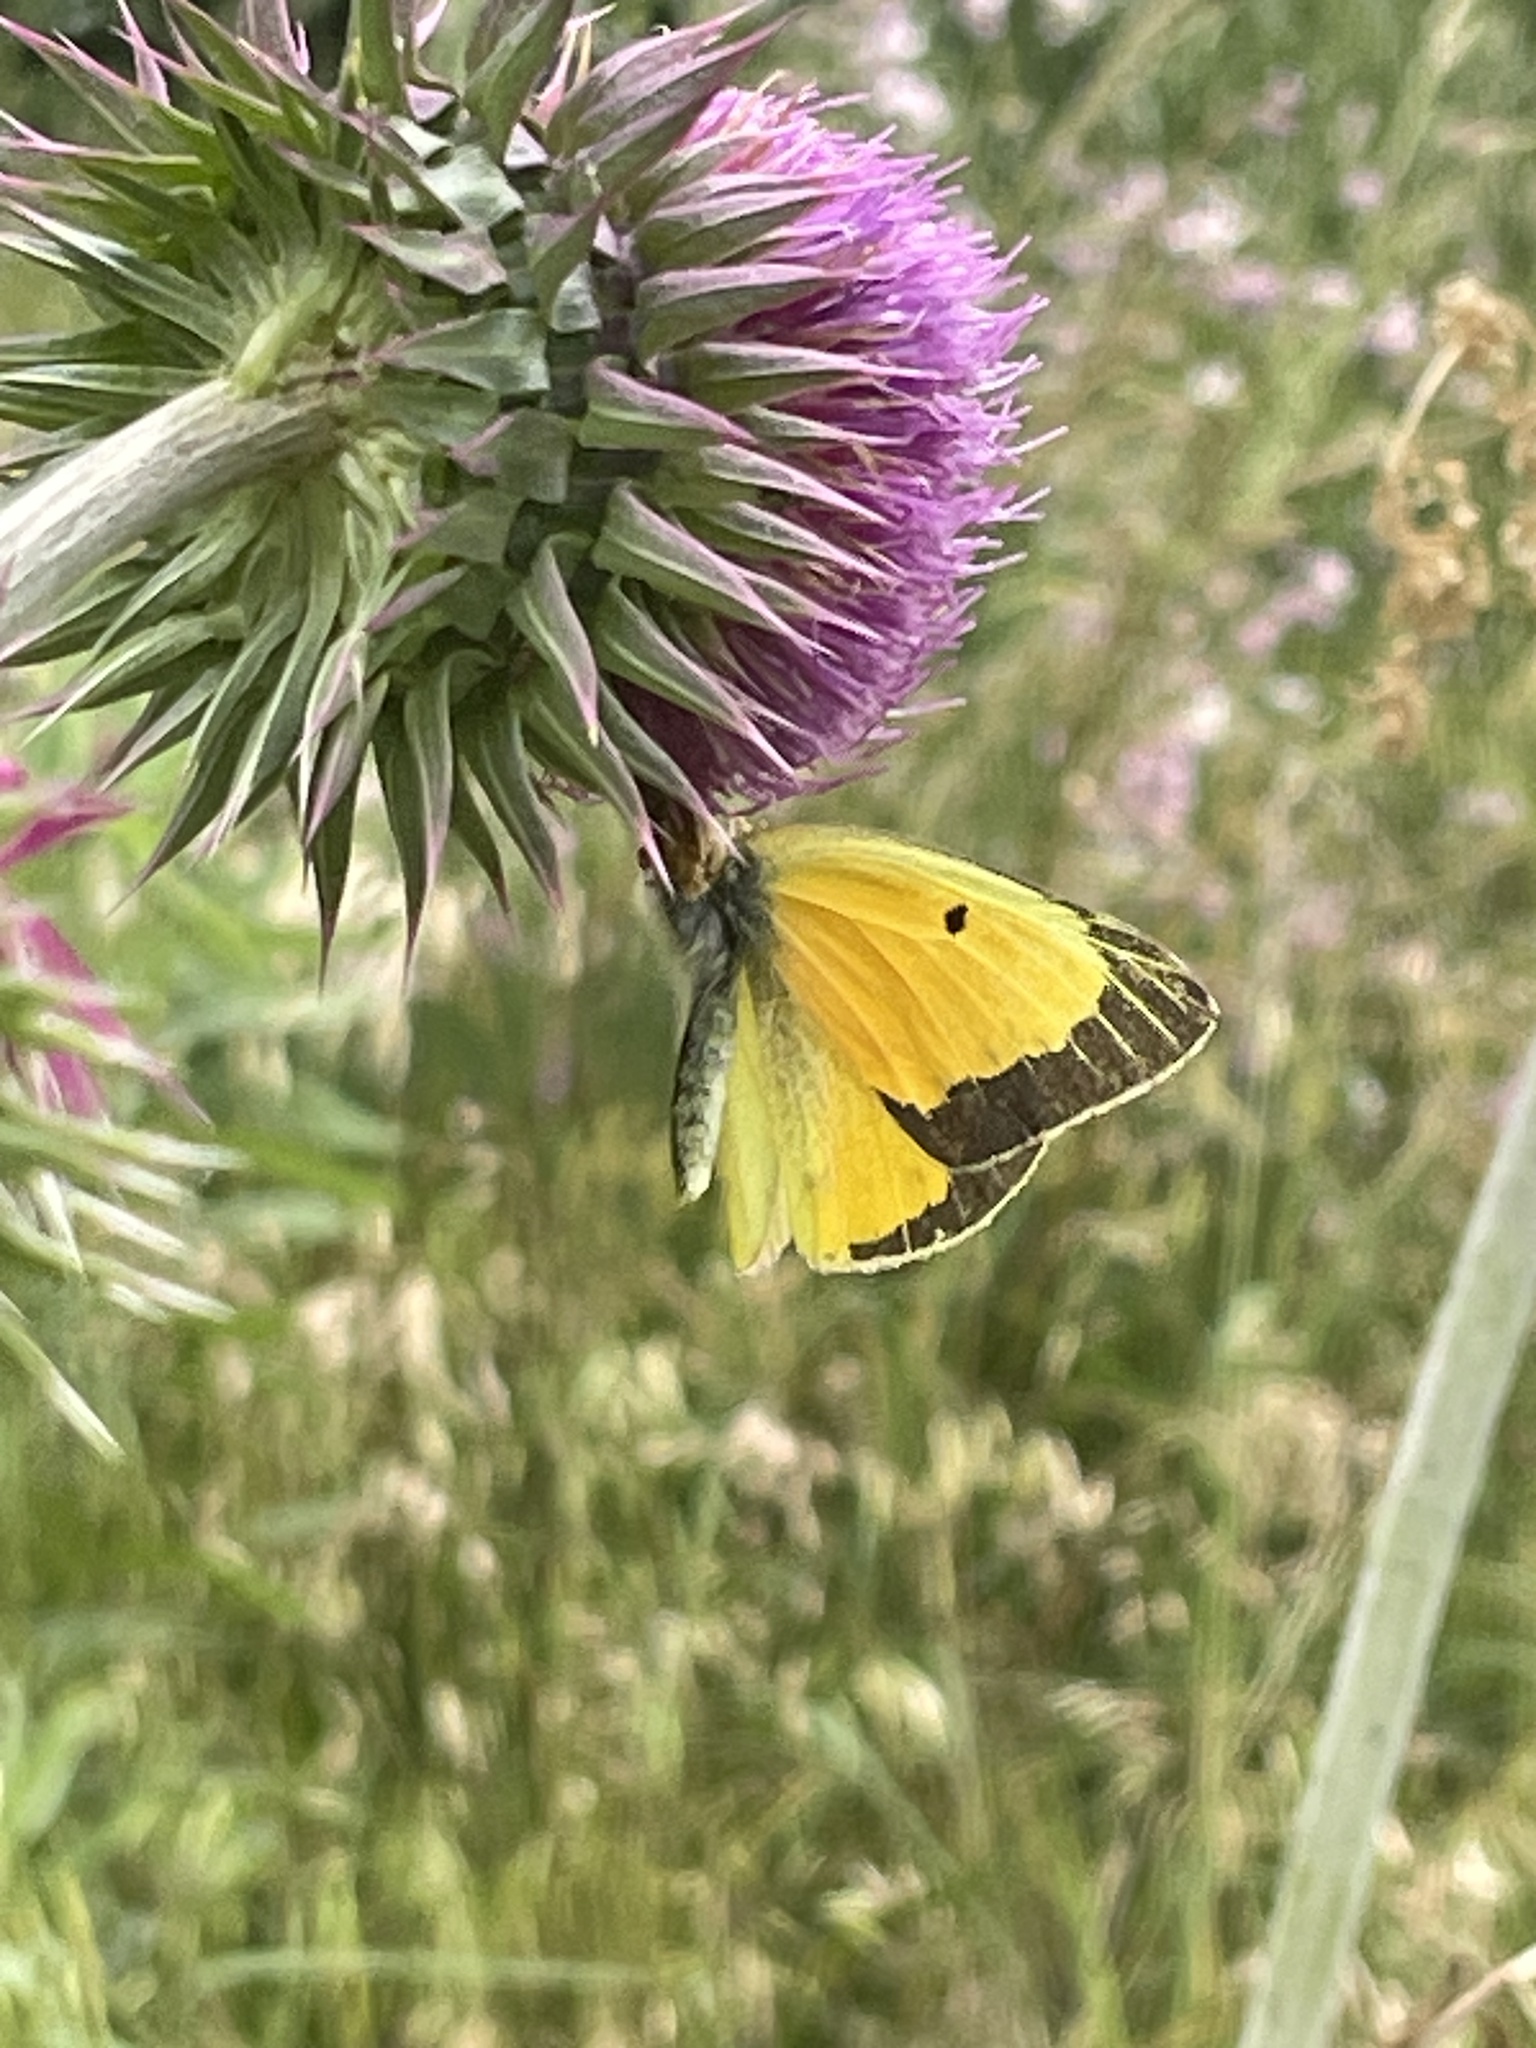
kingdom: Animalia
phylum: Arthropoda
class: Insecta
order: Lepidoptera
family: Pieridae
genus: Colias
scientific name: Colias eurytheme
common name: Alfalfa butterfly
